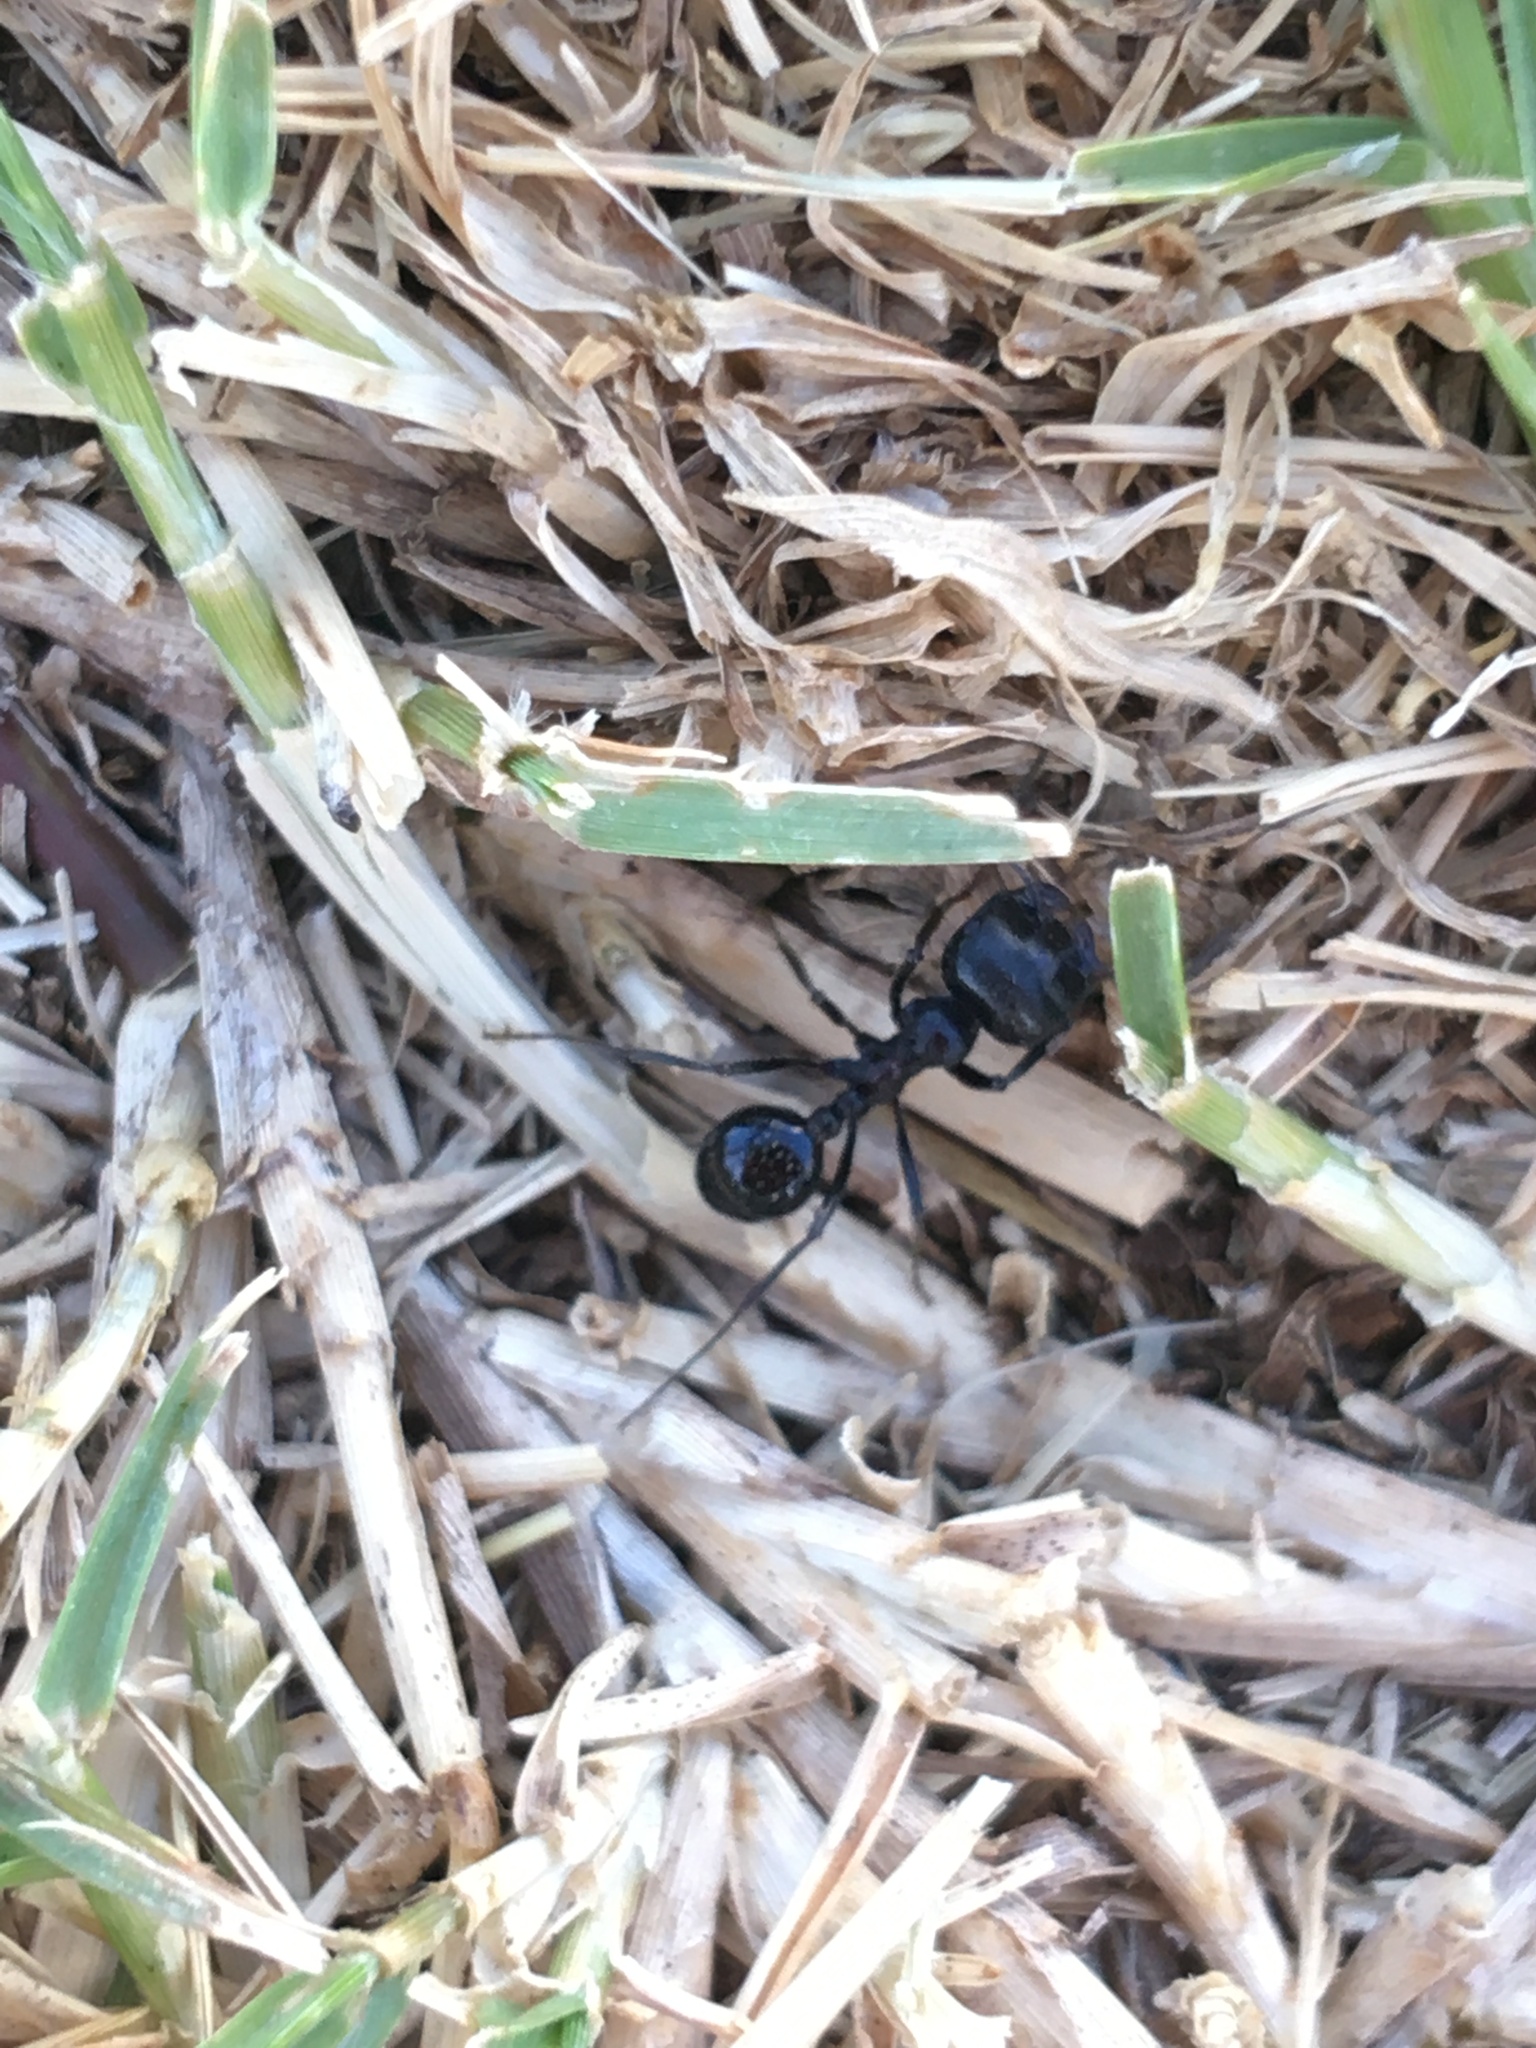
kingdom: Animalia
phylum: Arthropoda
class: Insecta
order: Hymenoptera
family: Formicidae
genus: Messor
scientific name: Messor
